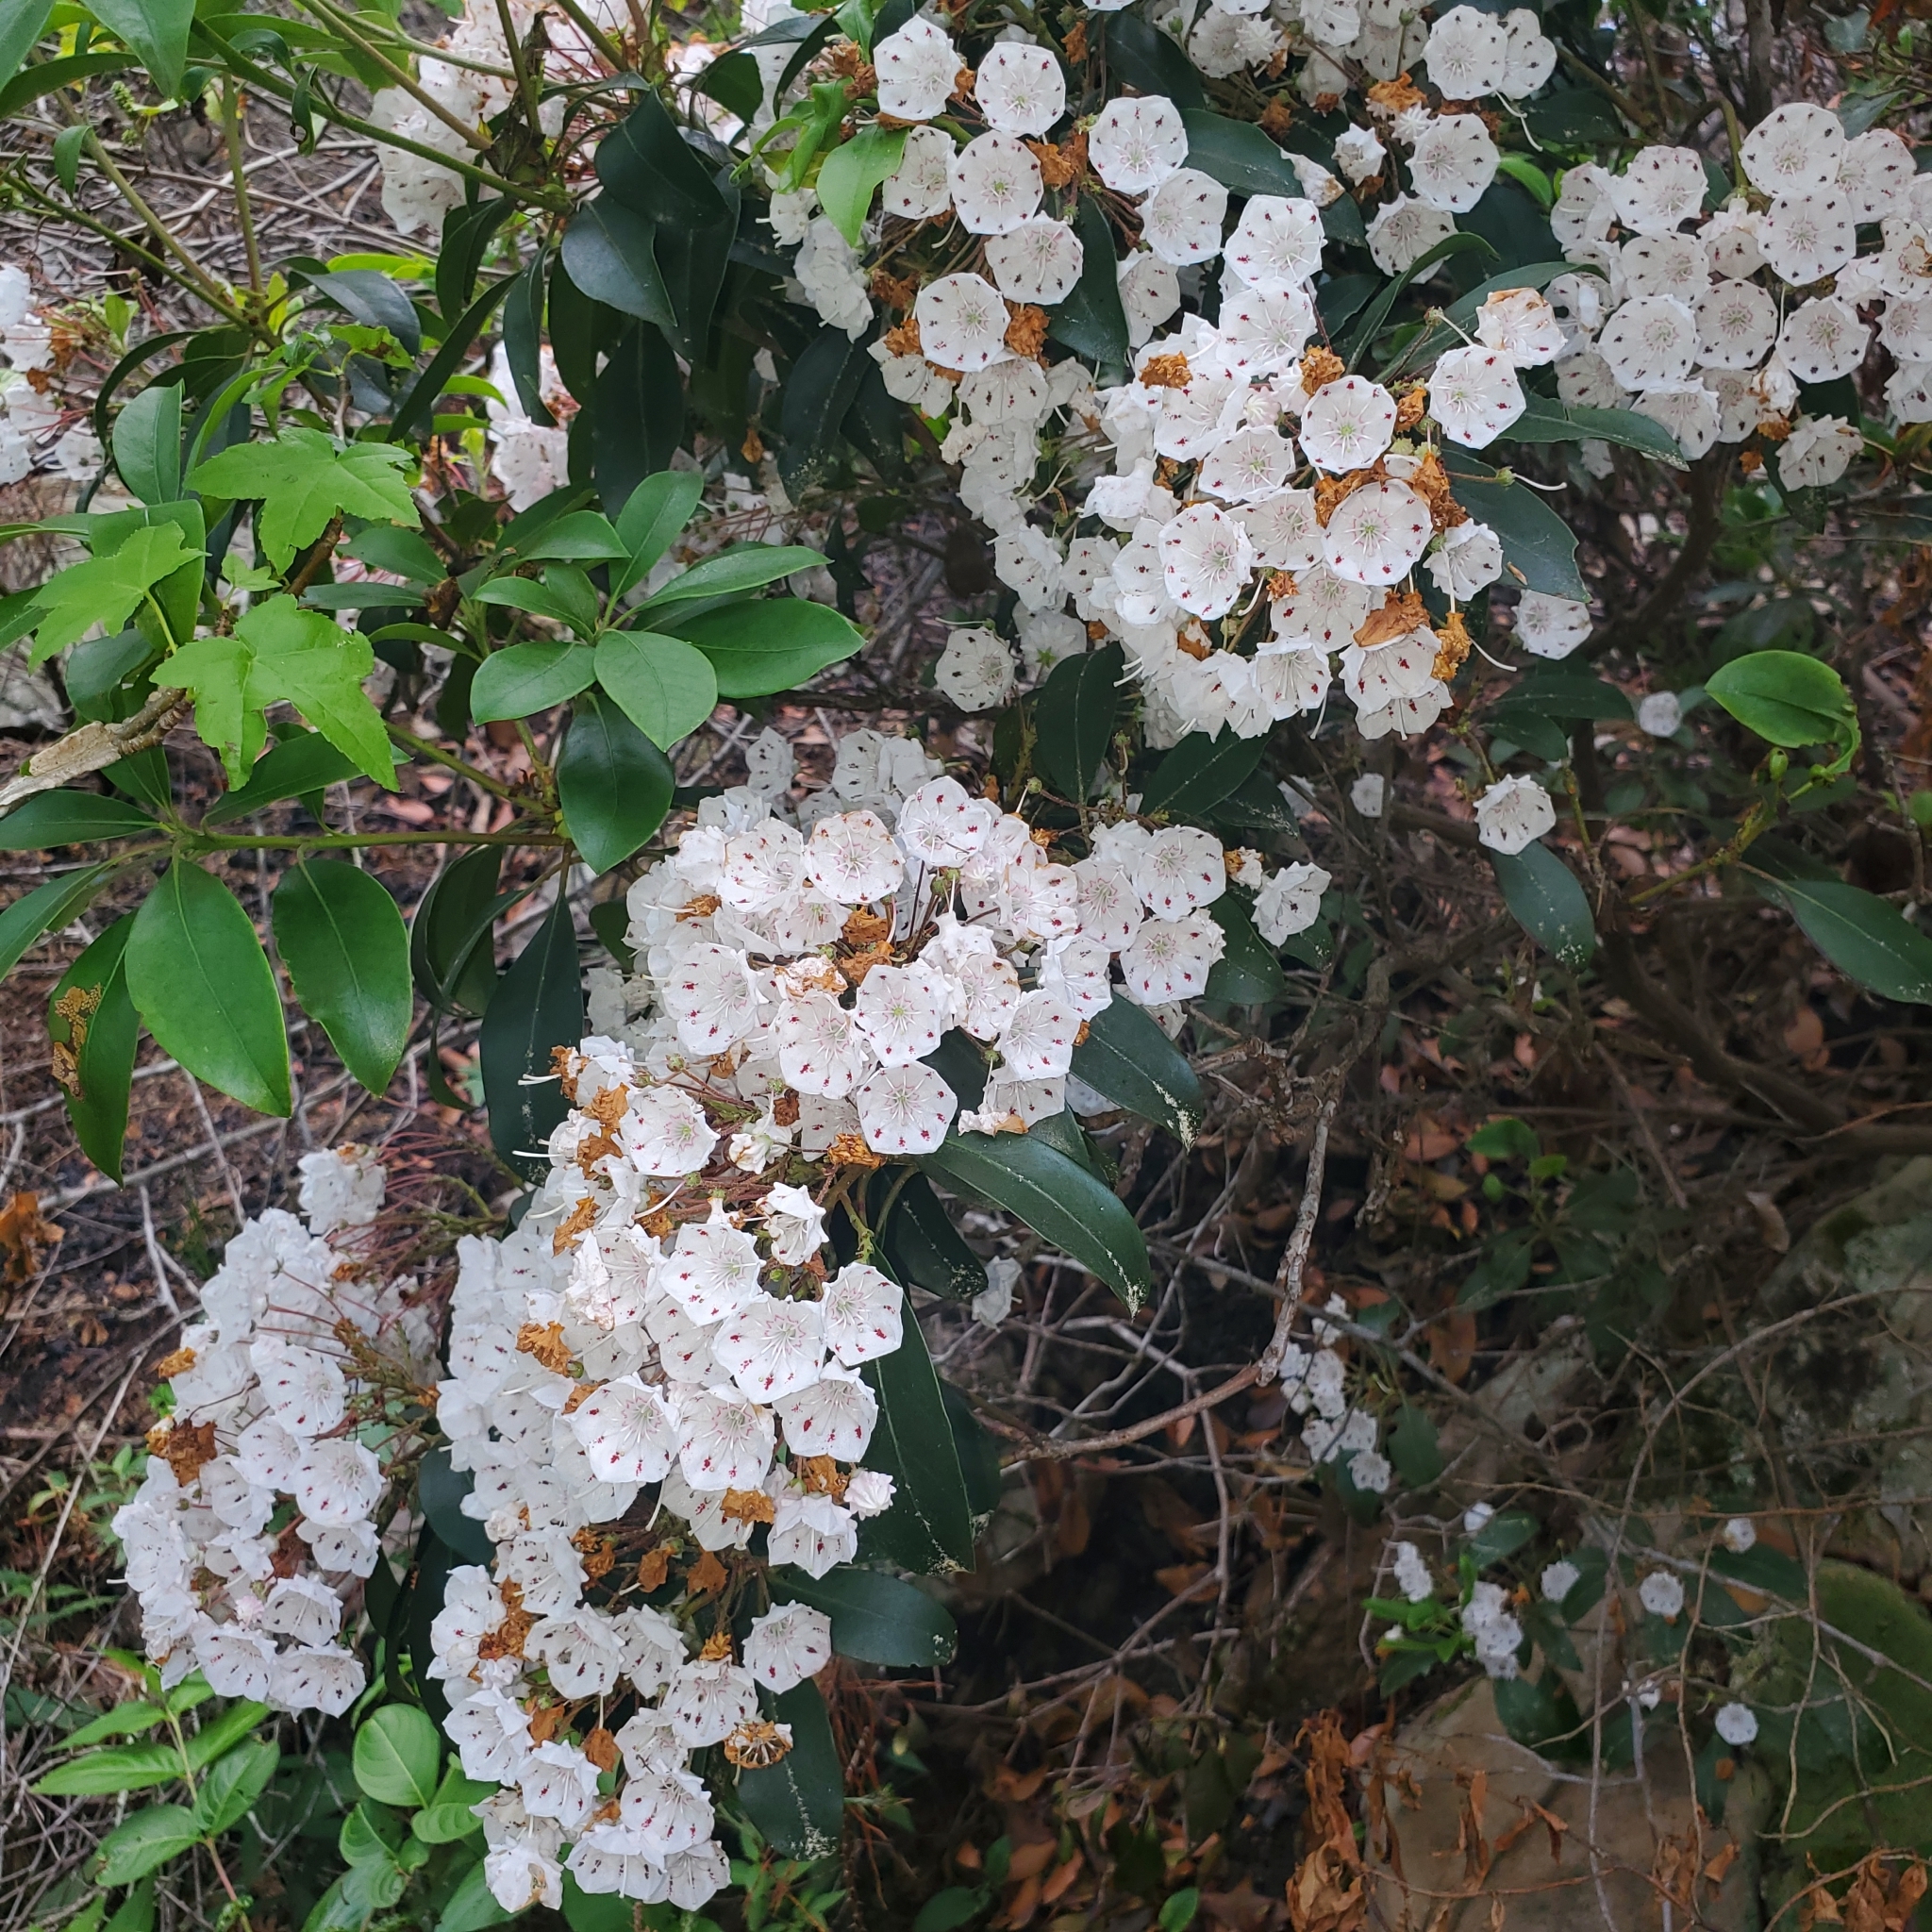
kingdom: Plantae
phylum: Tracheophyta
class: Magnoliopsida
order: Ericales
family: Ericaceae
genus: Kalmia
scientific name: Kalmia latifolia
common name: Mountain-laurel
